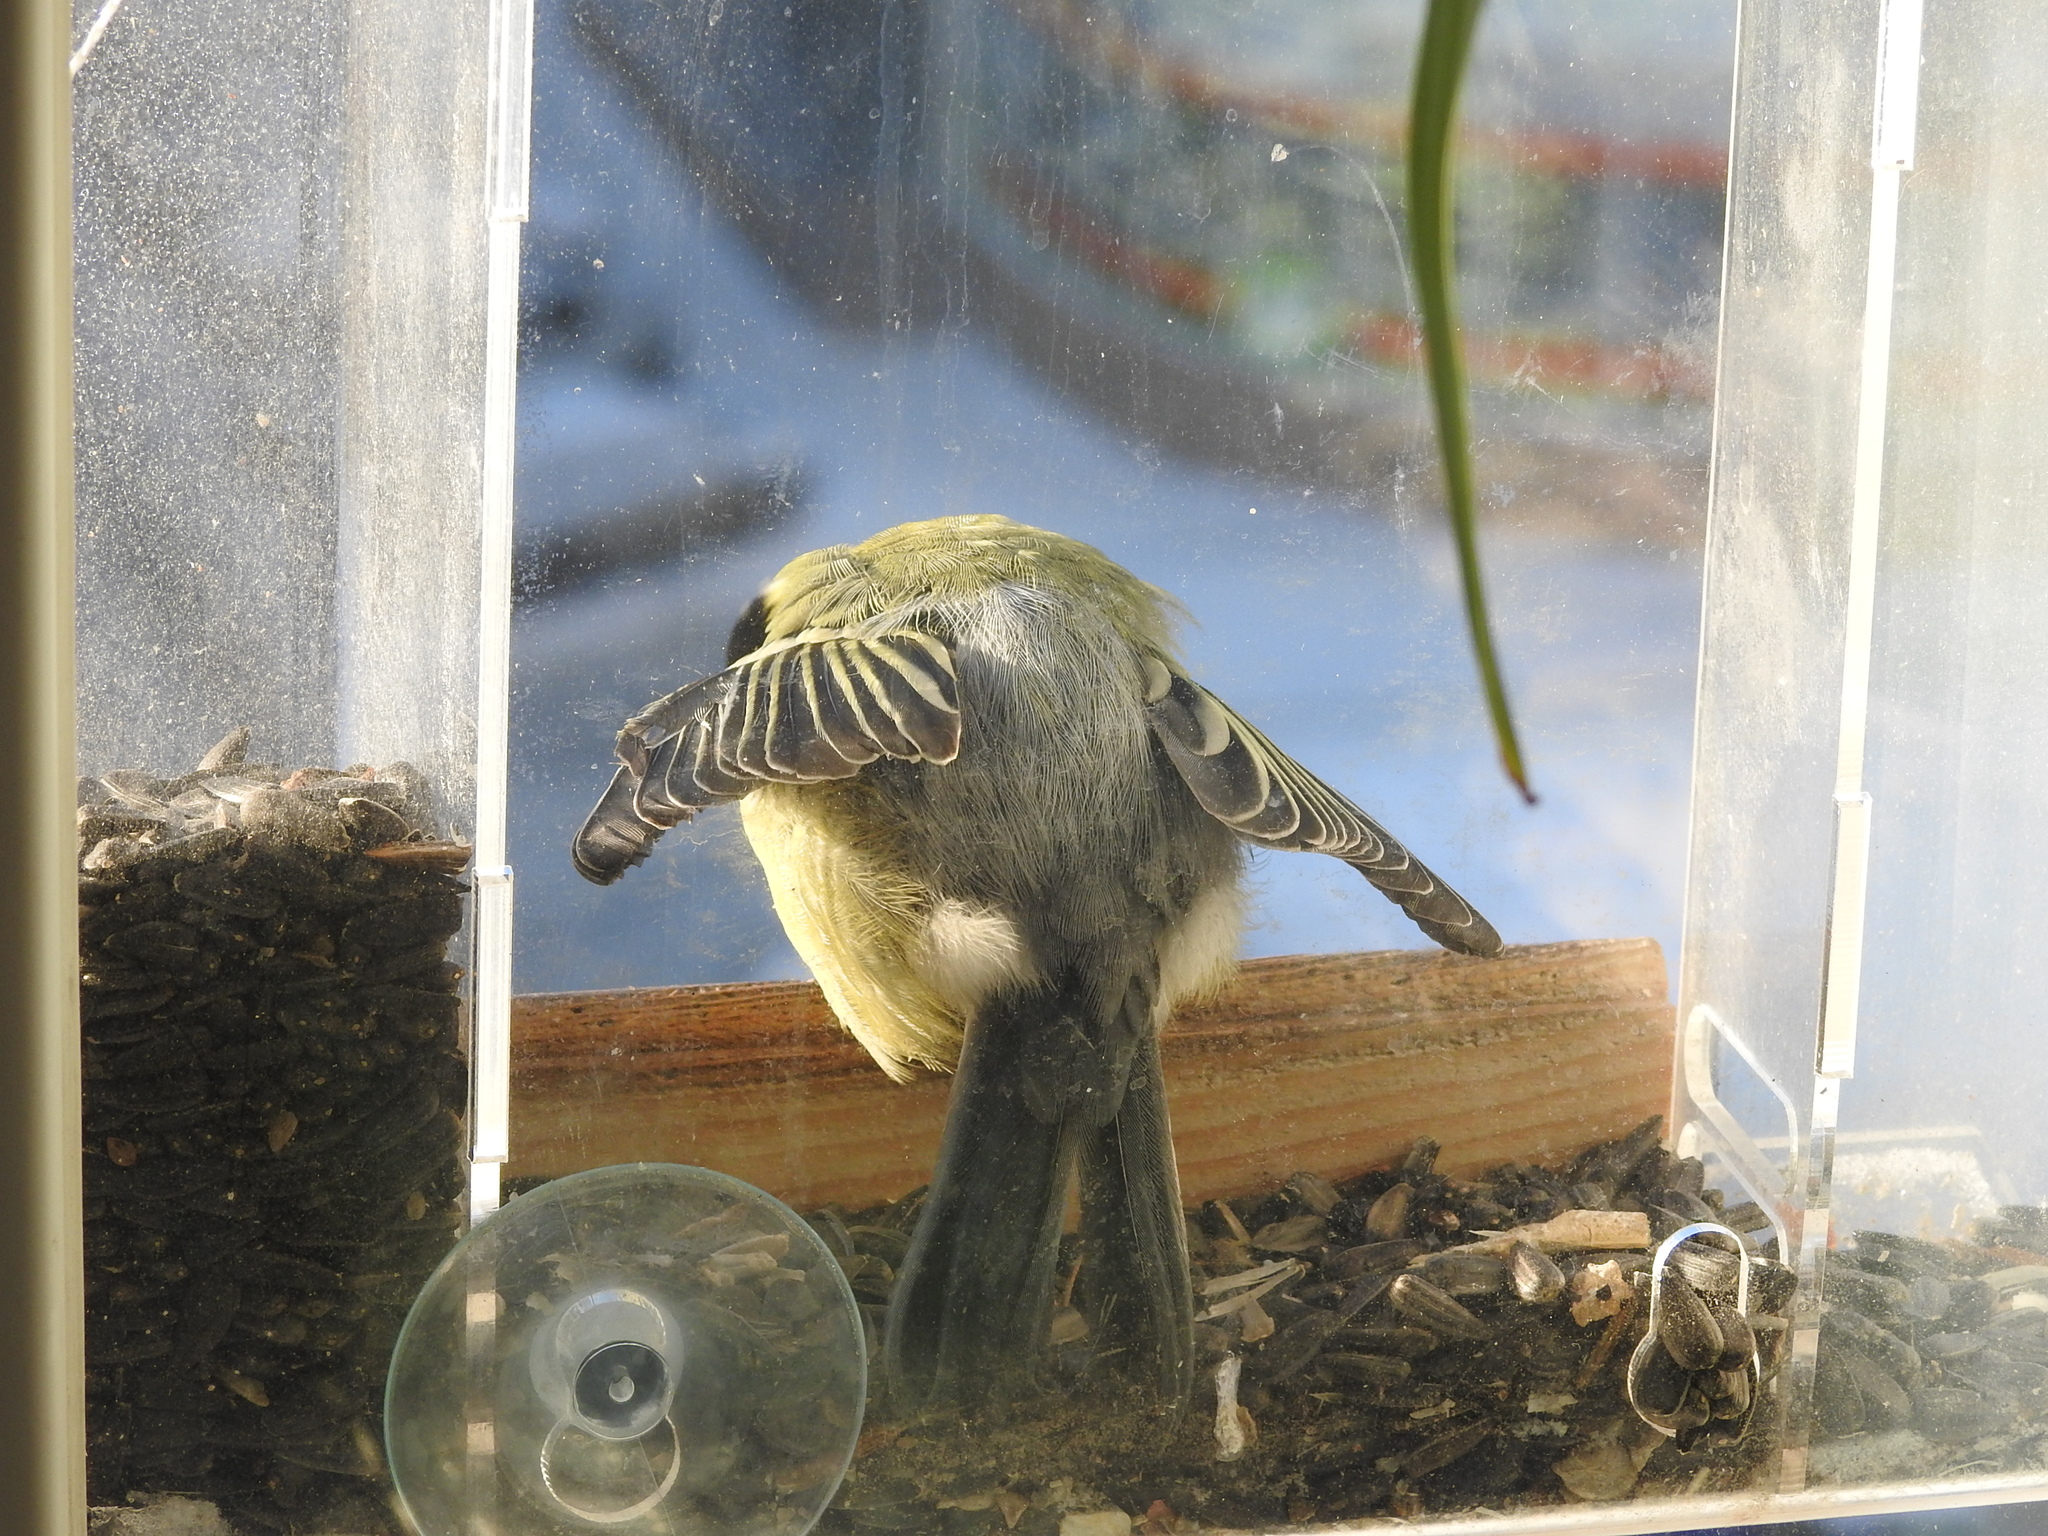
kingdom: Animalia
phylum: Chordata
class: Aves
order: Passeriformes
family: Paridae
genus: Parus
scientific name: Parus major
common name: Great tit
